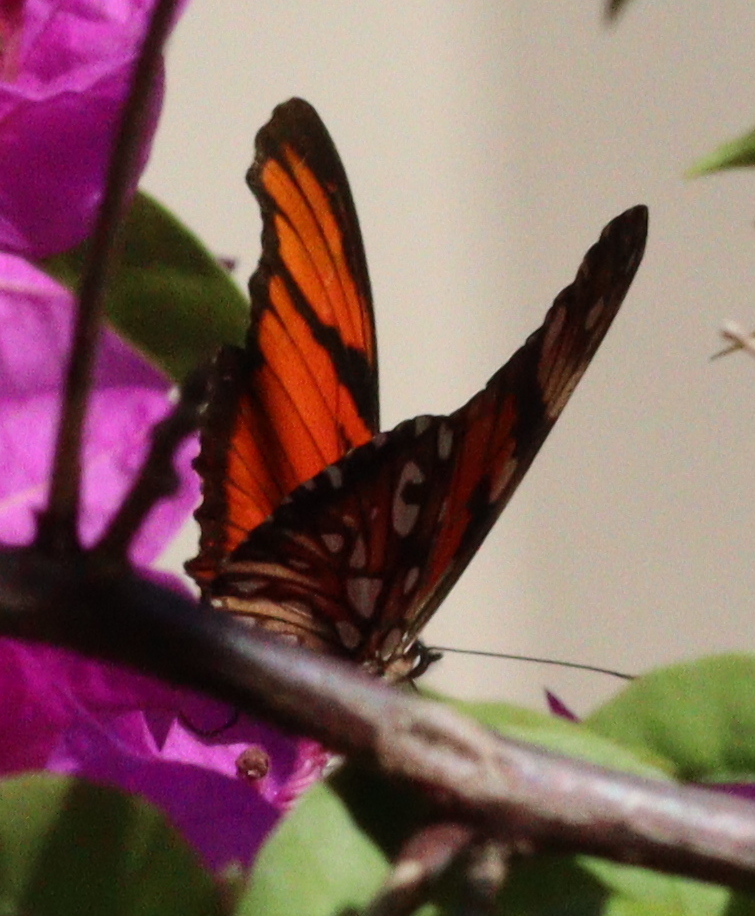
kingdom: Animalia
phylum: Arthropoda
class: Insecta
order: Lepidoptera
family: Nymphalidae
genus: Dione
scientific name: Dione juno
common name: Juno silverspot
